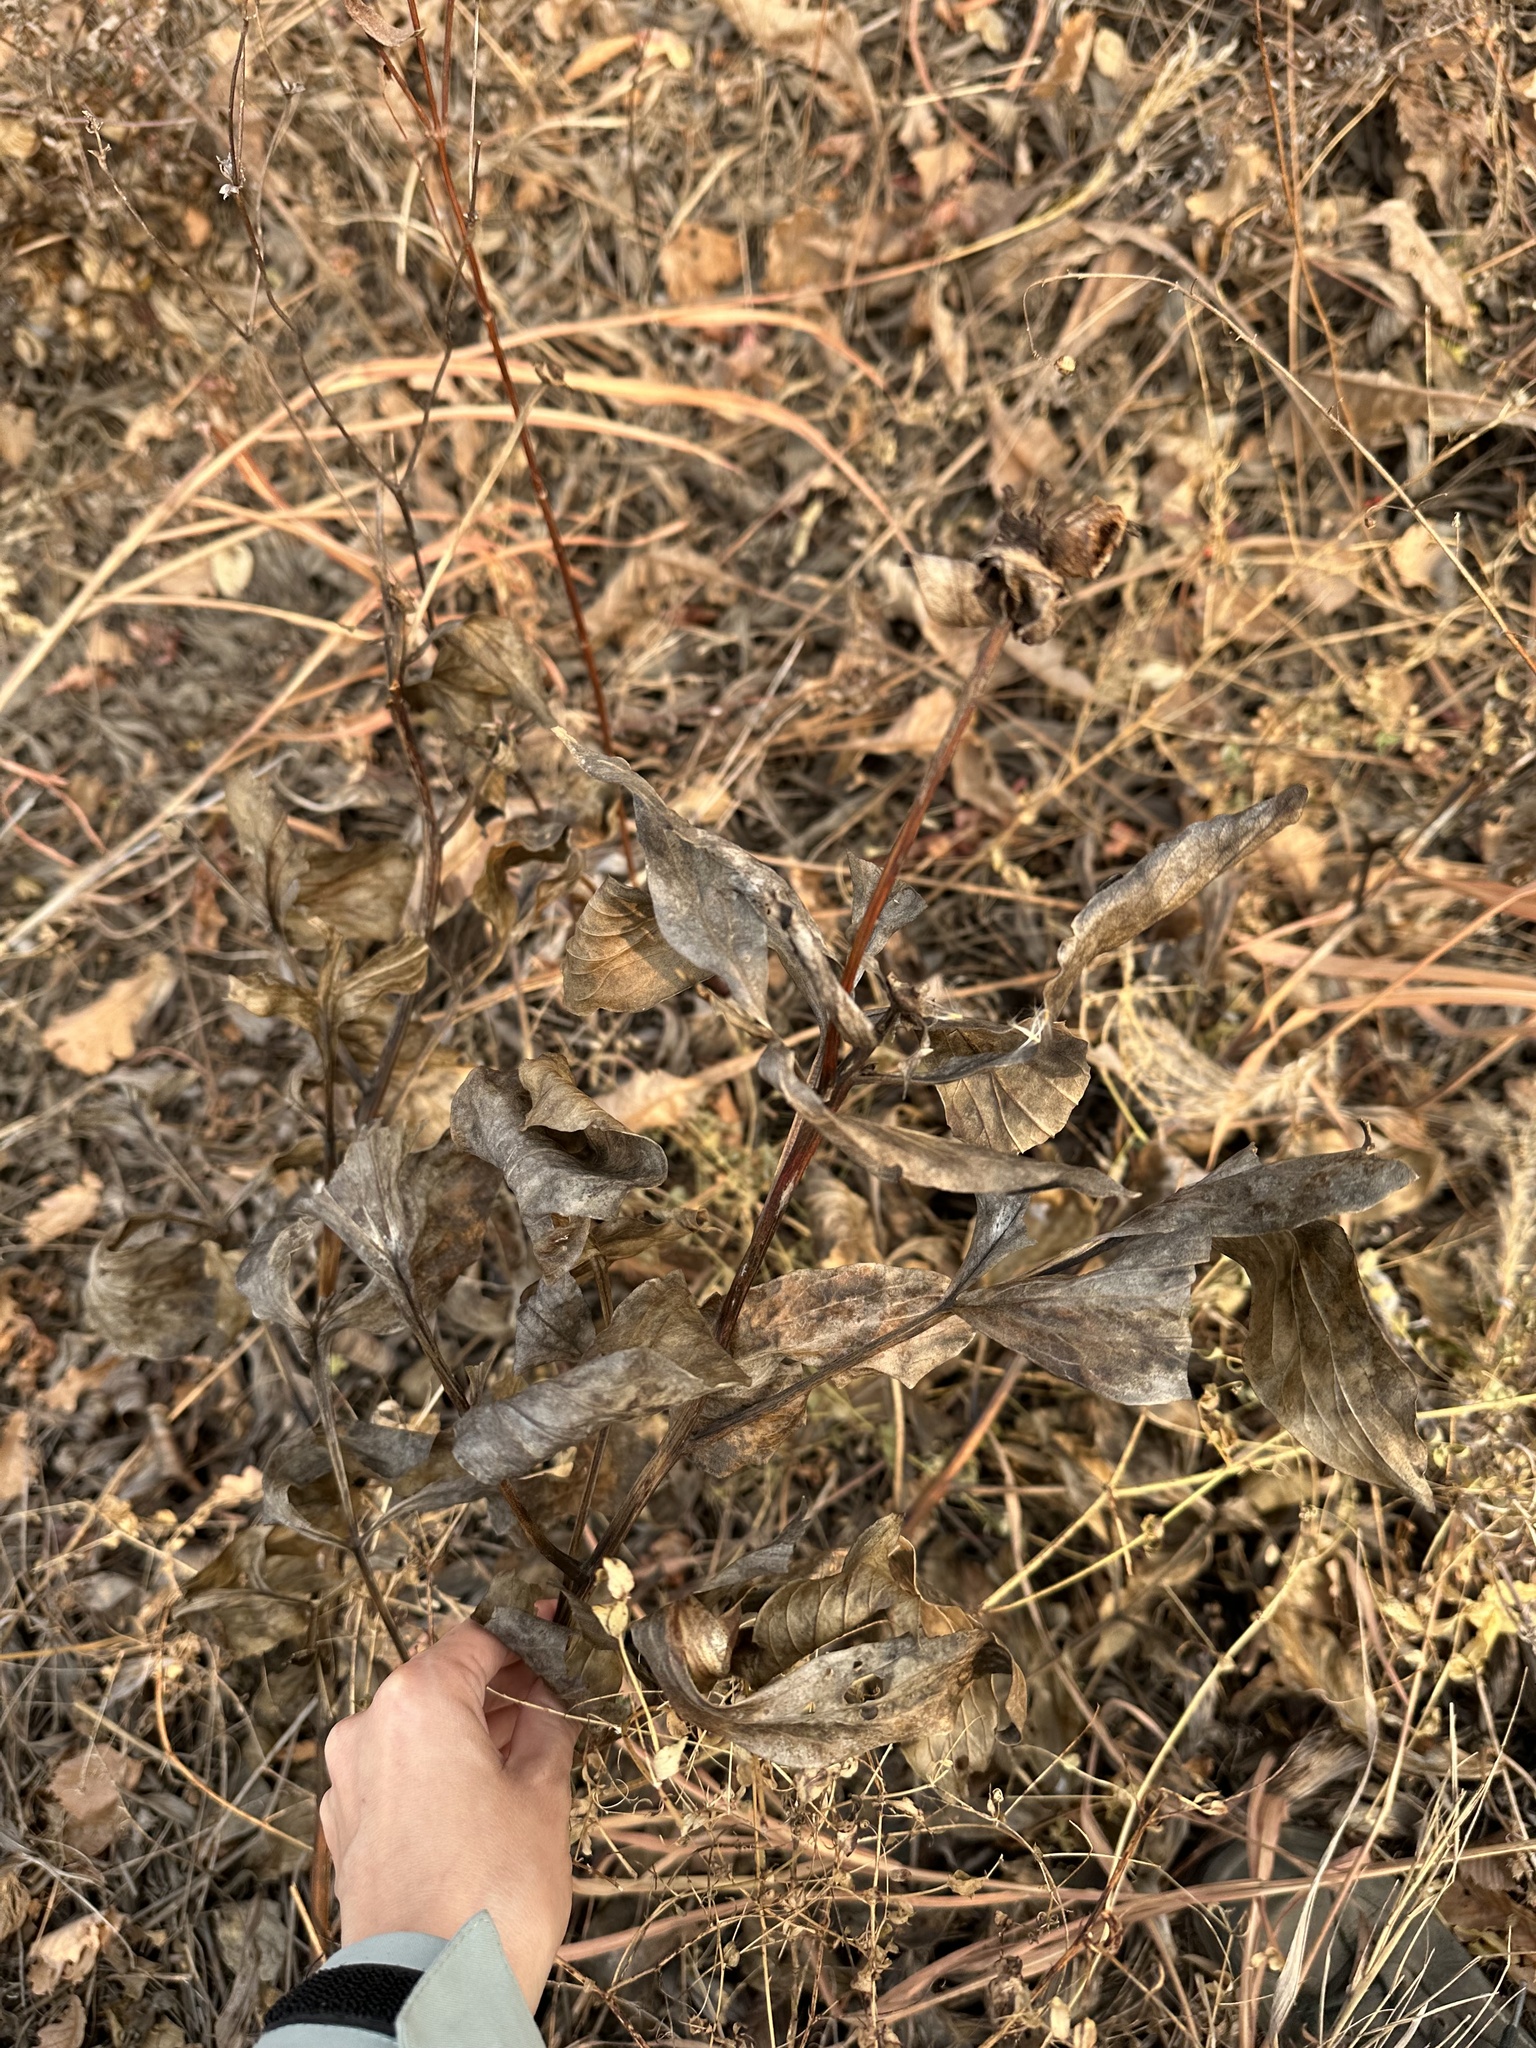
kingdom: Plantae
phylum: Tracheophyta
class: Magnoliopsida
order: Saxifragales
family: Paeoniaceae
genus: Paeonia
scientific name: Paeonia lactiflora
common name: Chinese peony
